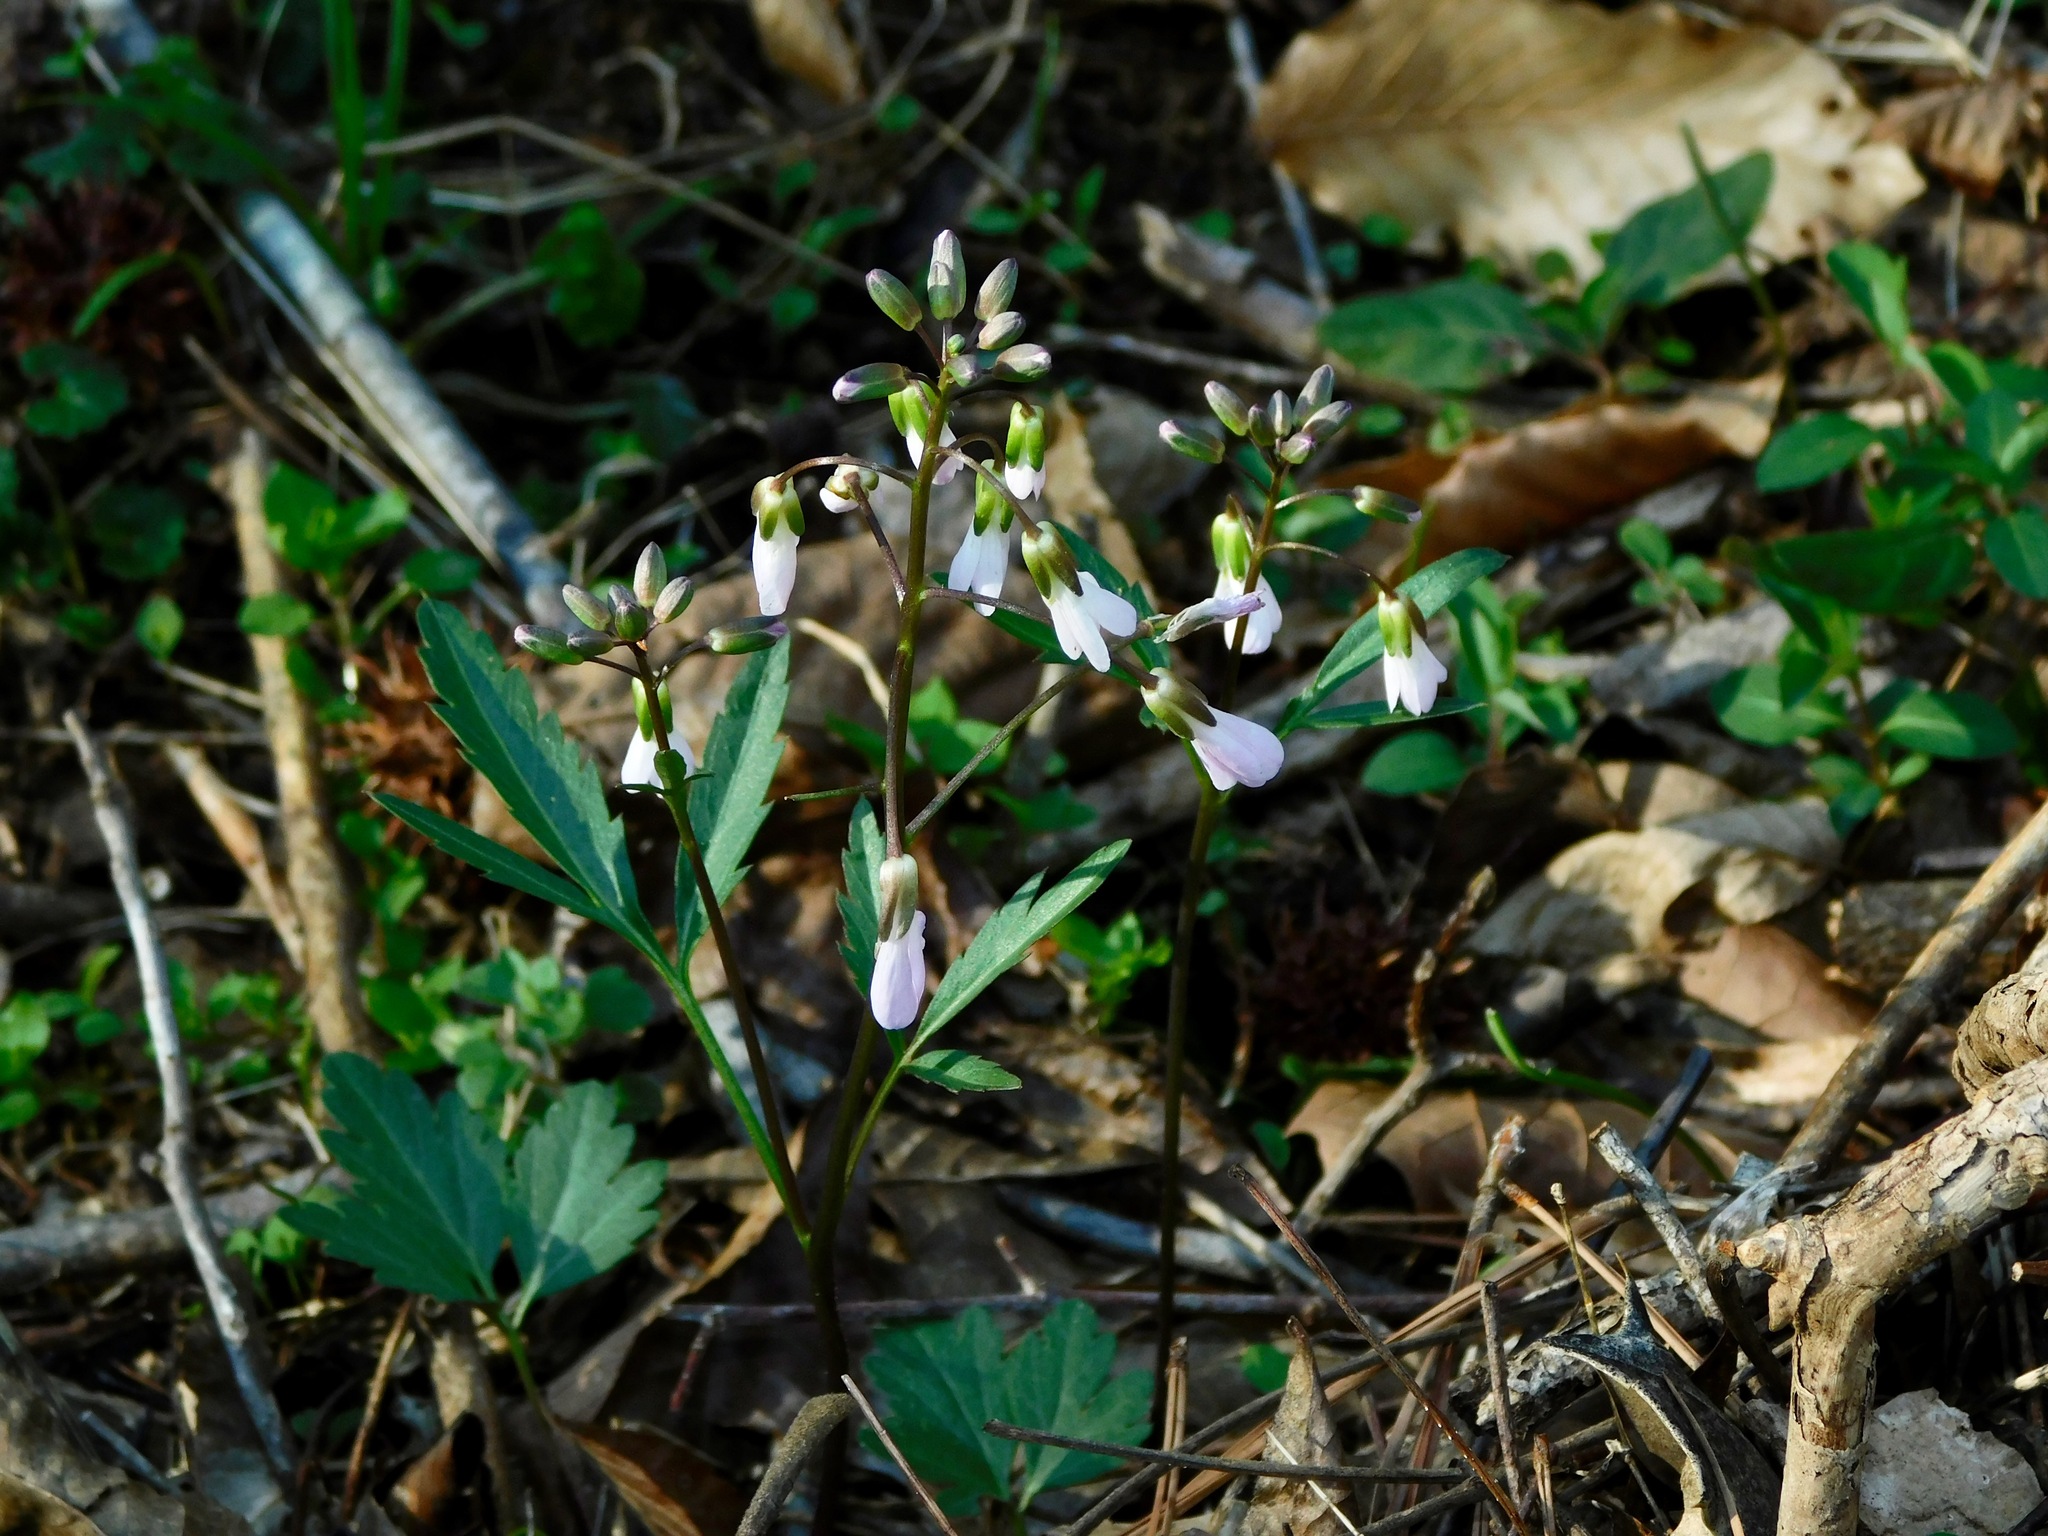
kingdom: Plantae
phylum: Tracheophyta
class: Magnoliopsida
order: Brassicales
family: Brassicaceae
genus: Cardamine
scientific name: Cardamine angustata
